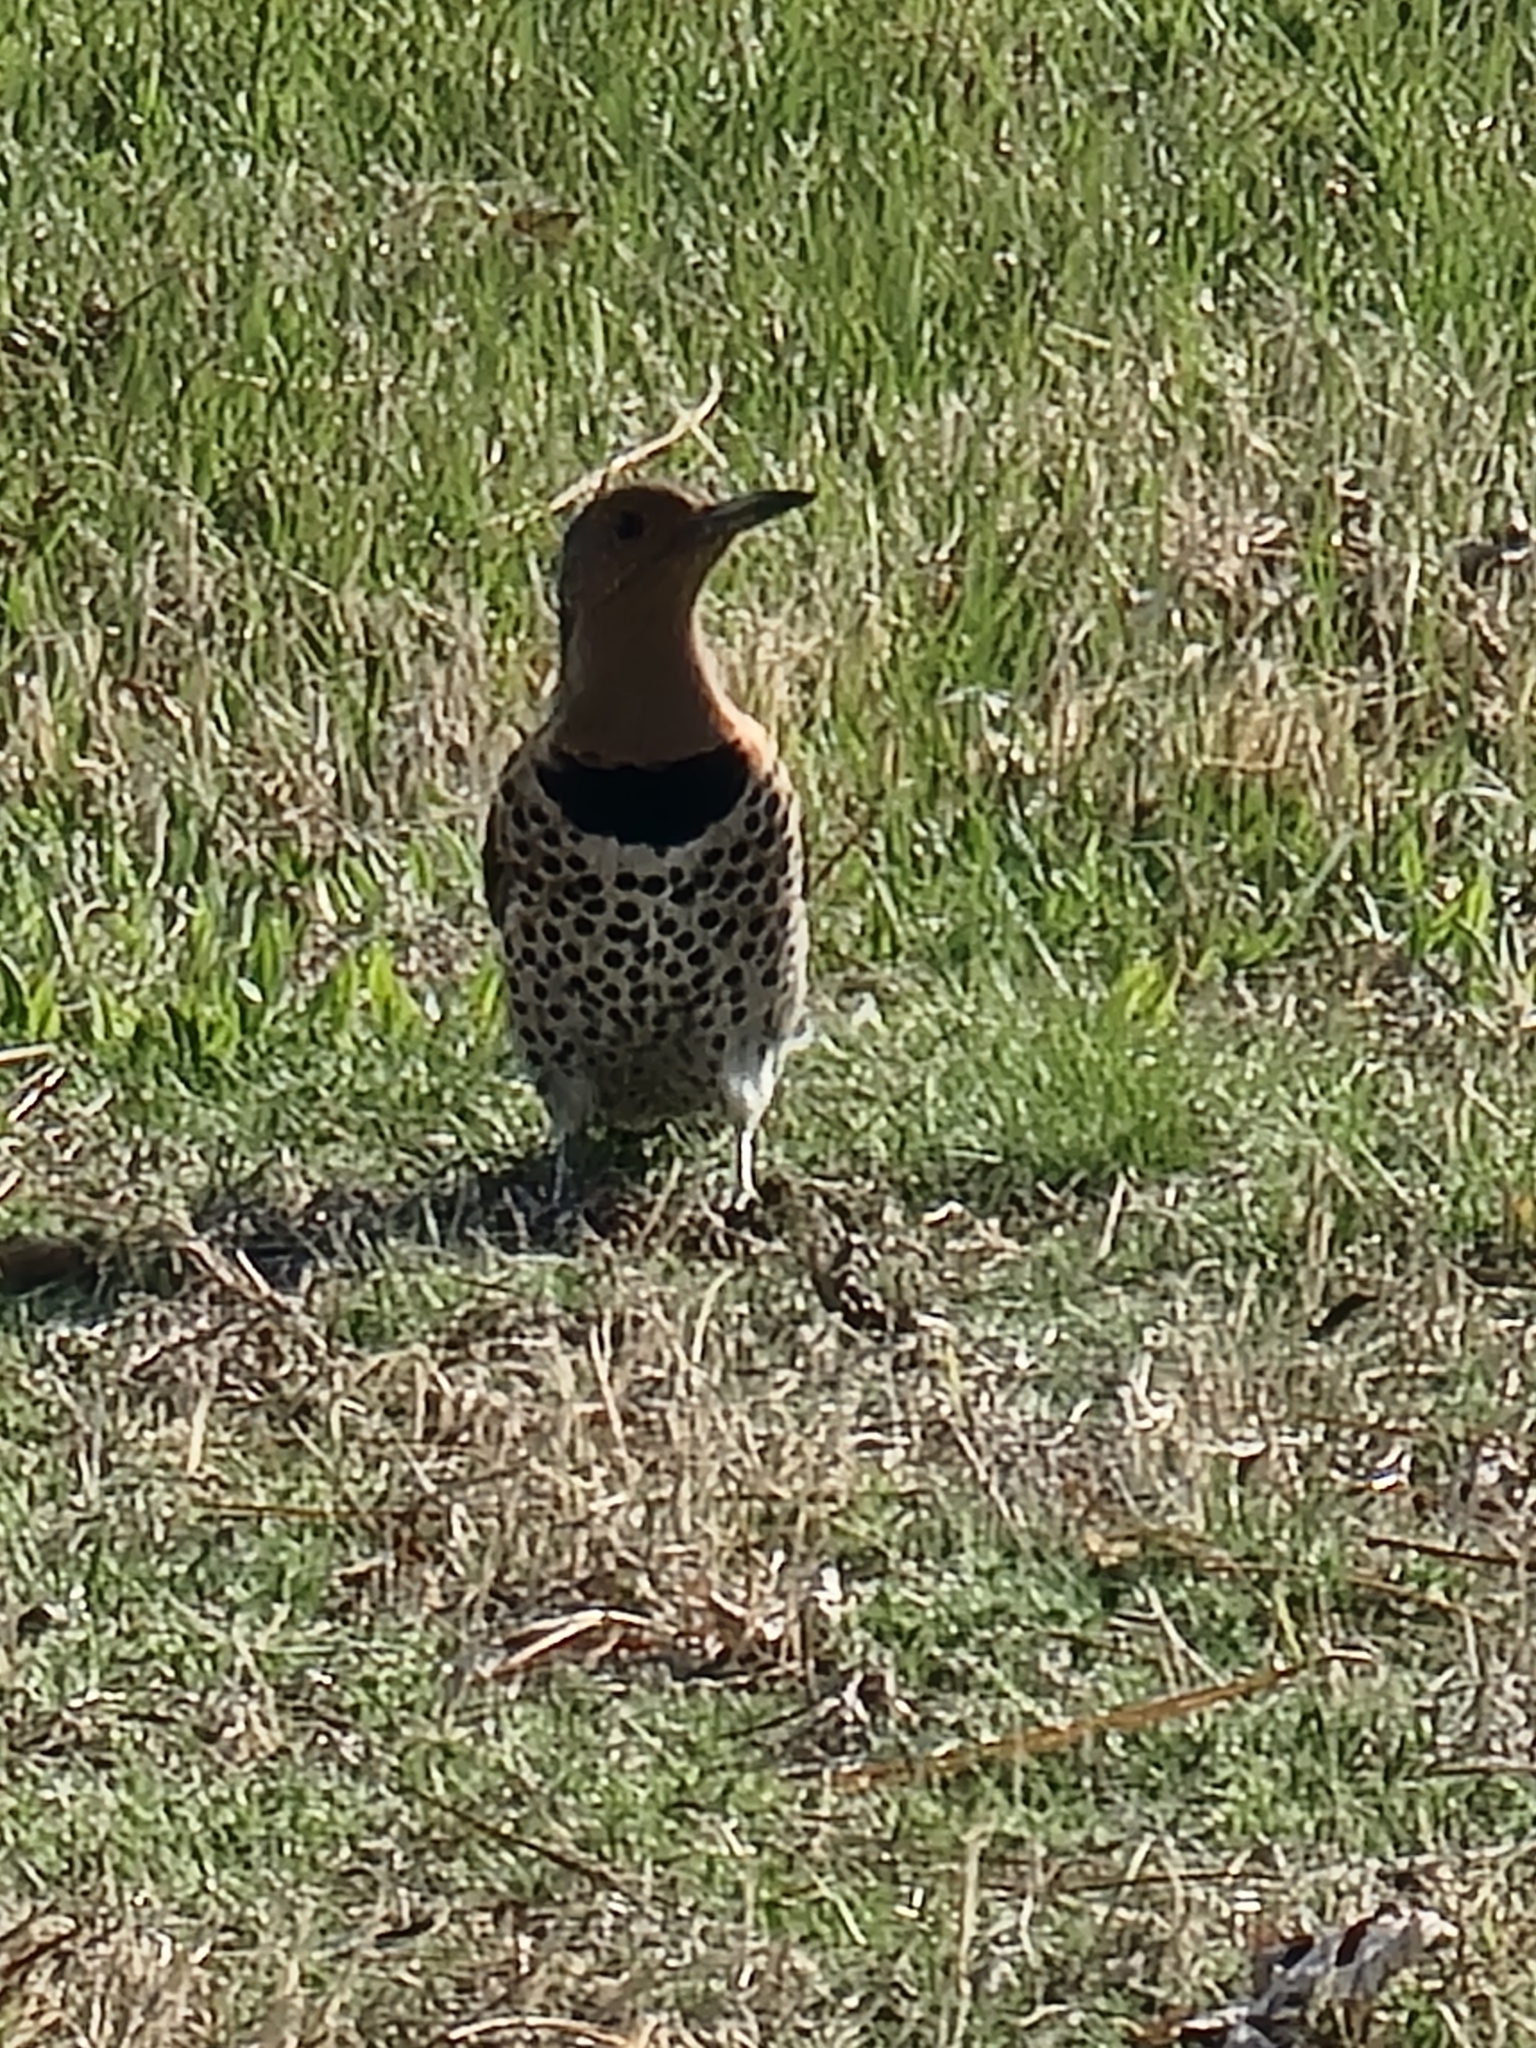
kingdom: Animalia
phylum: Chordata
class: Aves
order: Piciformes
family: Picidae
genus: Colaptes
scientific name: Colaptes auratus
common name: Northern flicker
